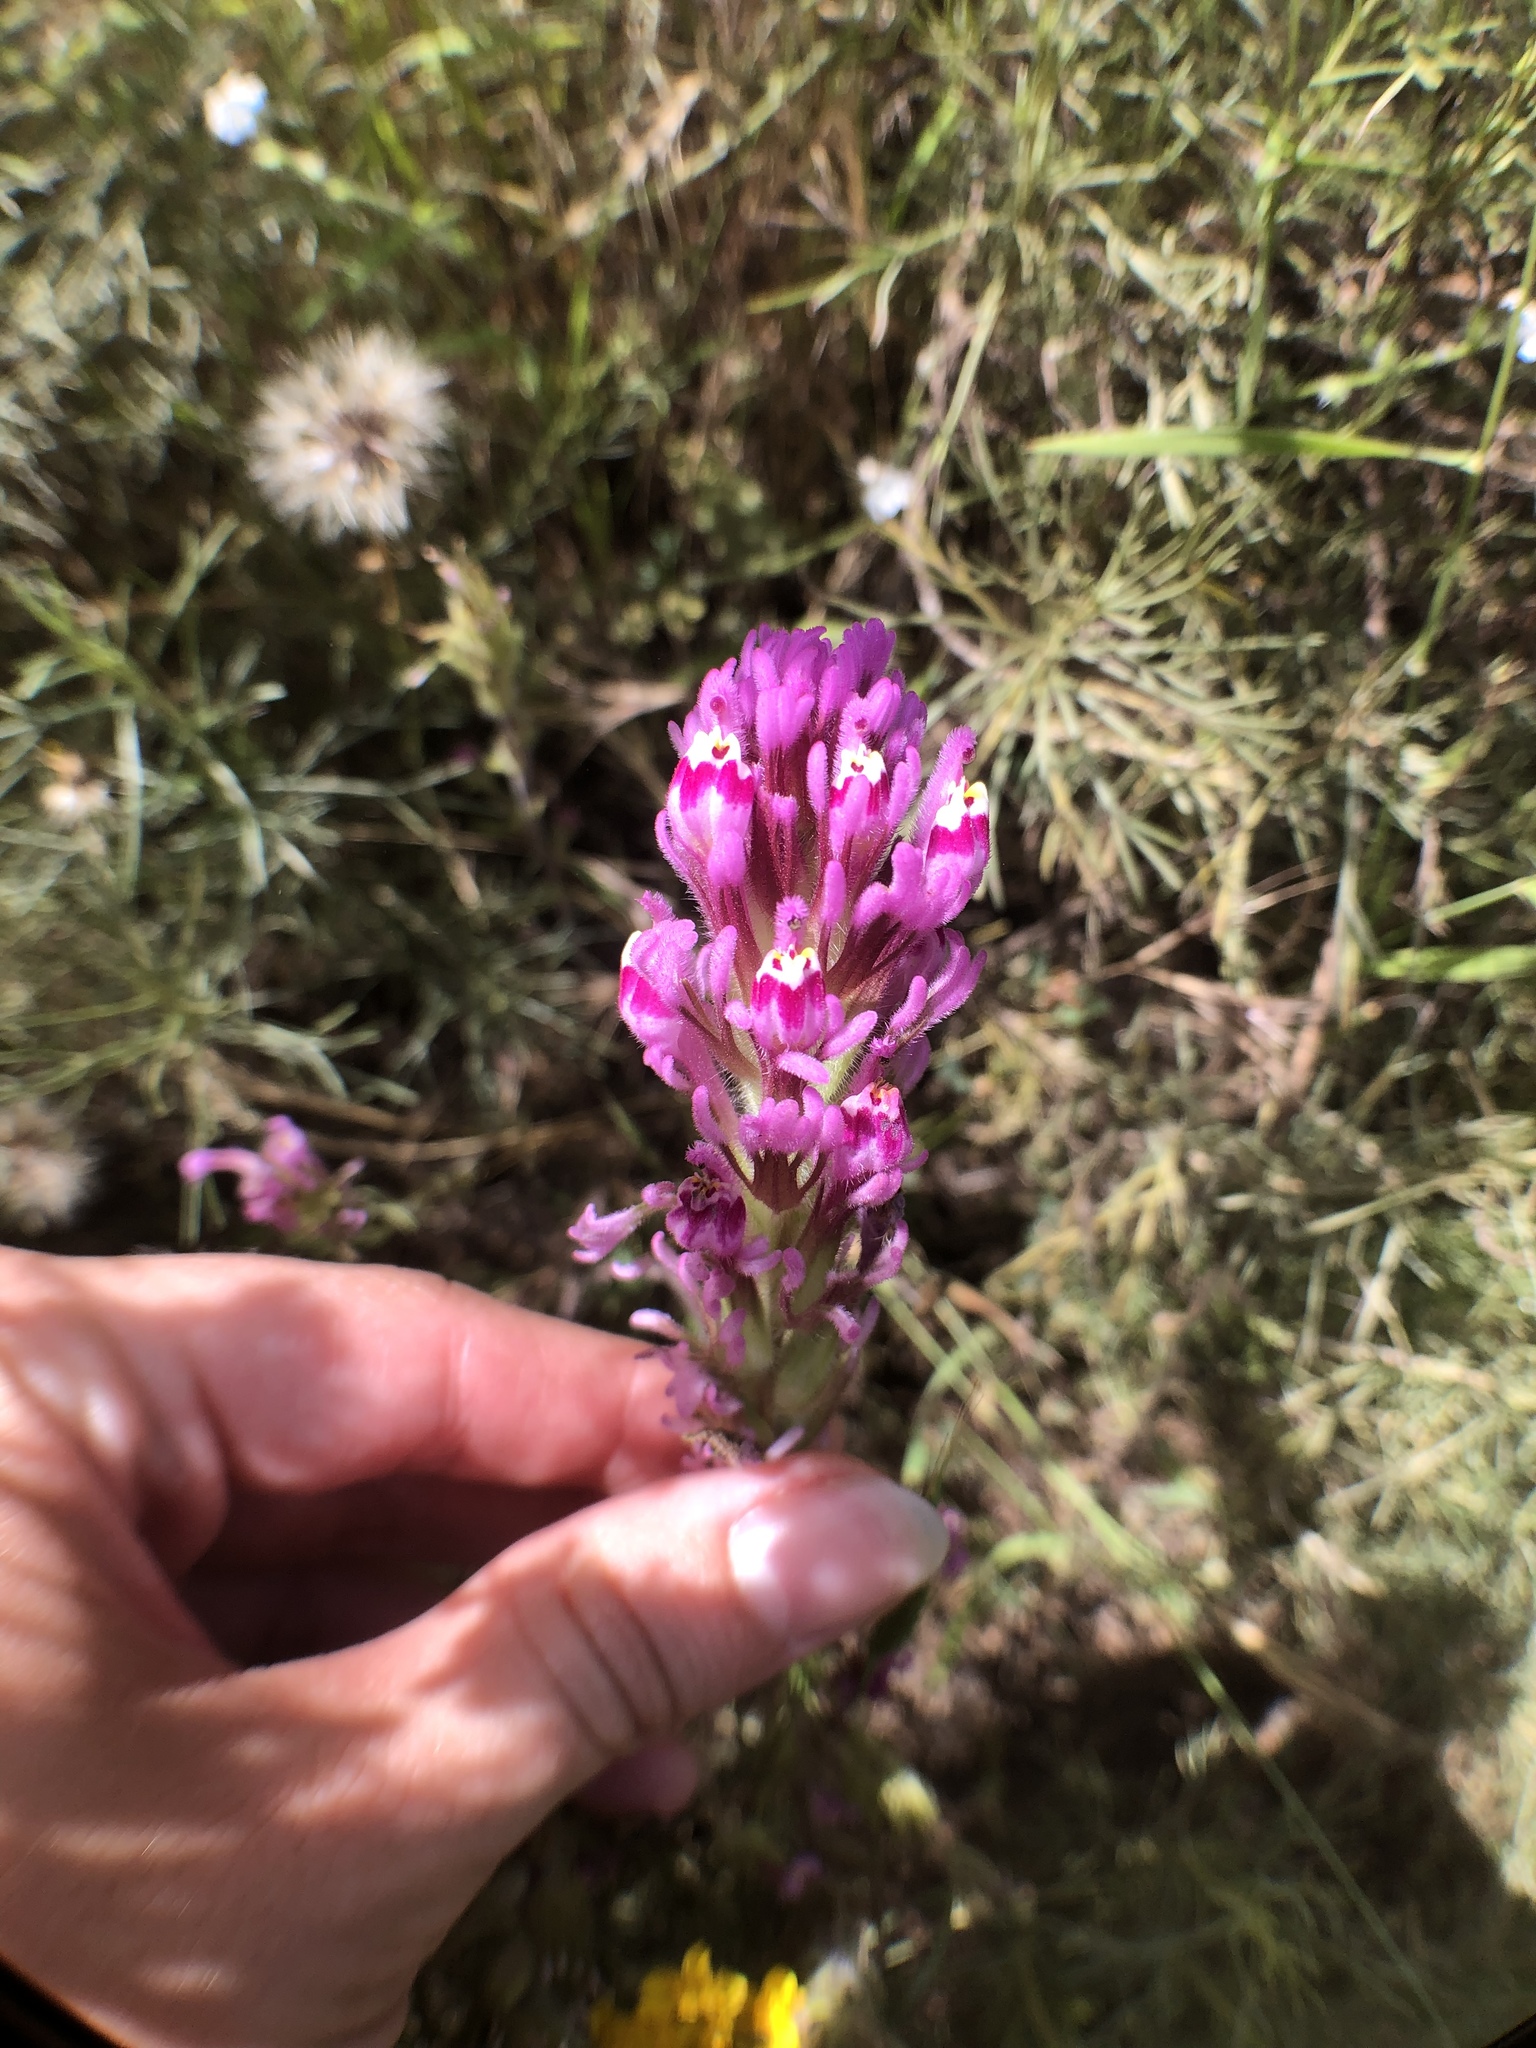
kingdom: Plantae
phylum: Tracheophyta
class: Magnoliopsida
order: Lamiales
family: Orobanchaceae
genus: Castilleja
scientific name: Castilleja exserta
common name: Purple owl-clover
